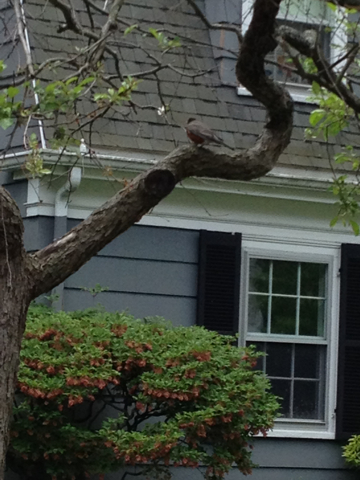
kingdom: Animalia
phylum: Chordata
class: Aves
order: Passeriformes
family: Turdidae
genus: Turdus
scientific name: Turdus migratorius
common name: American robin
